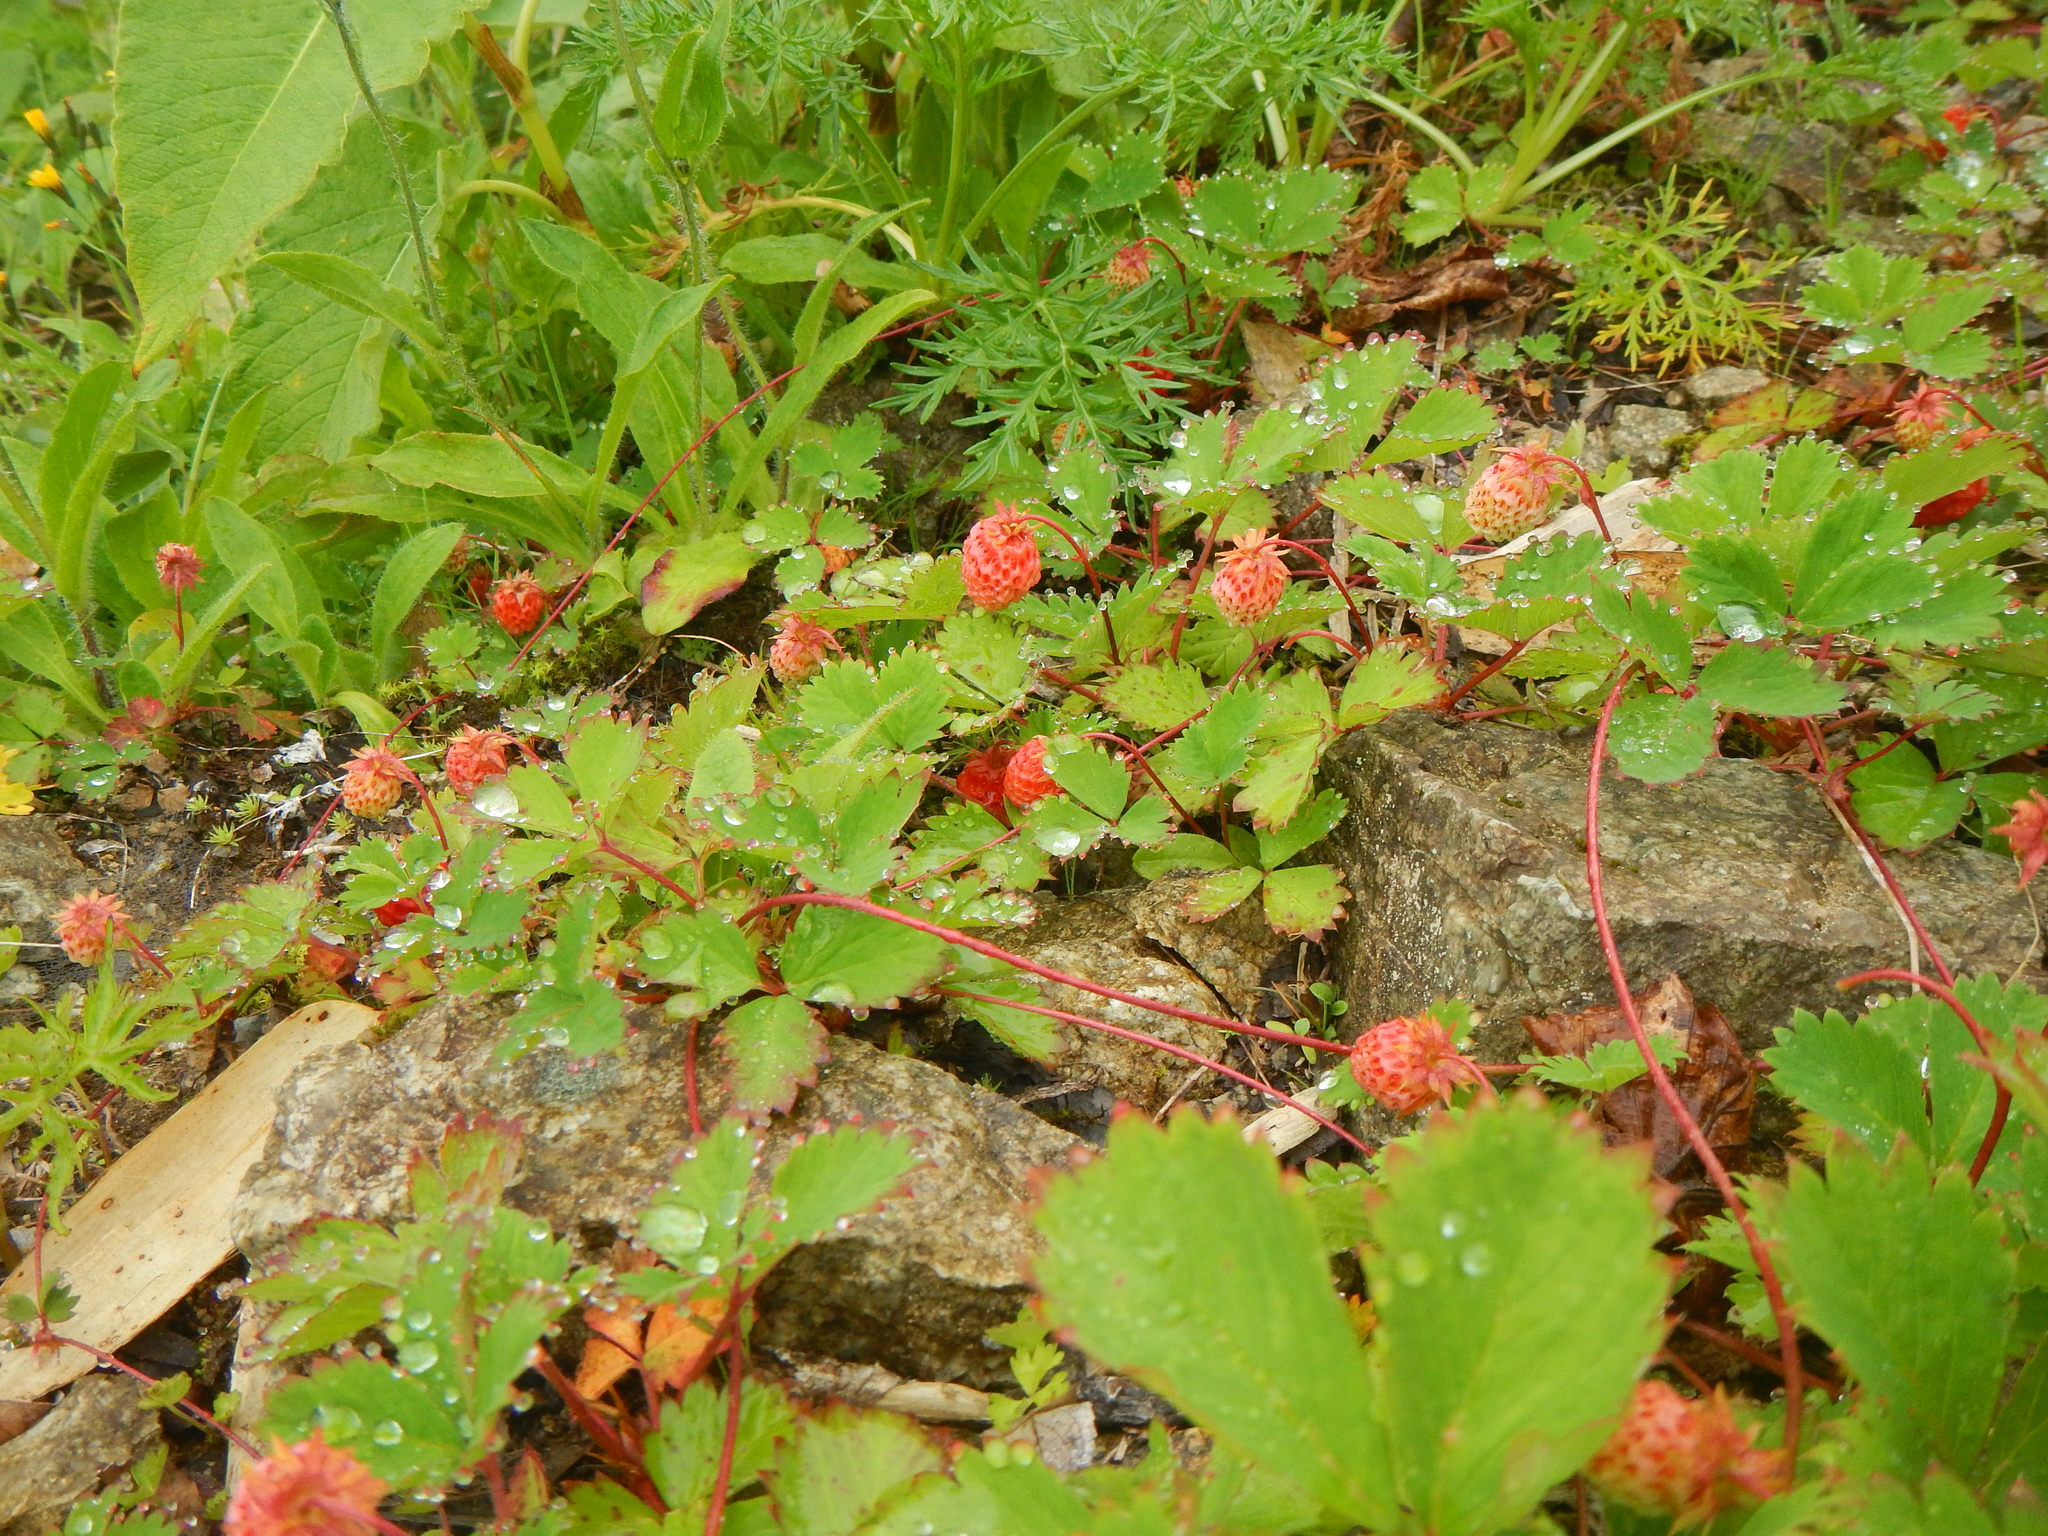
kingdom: Plantae
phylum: Tracheophyta
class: Magnoliopsida
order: Rosales
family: Rosaceae
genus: Fragaria
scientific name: Fragaria iinumae
